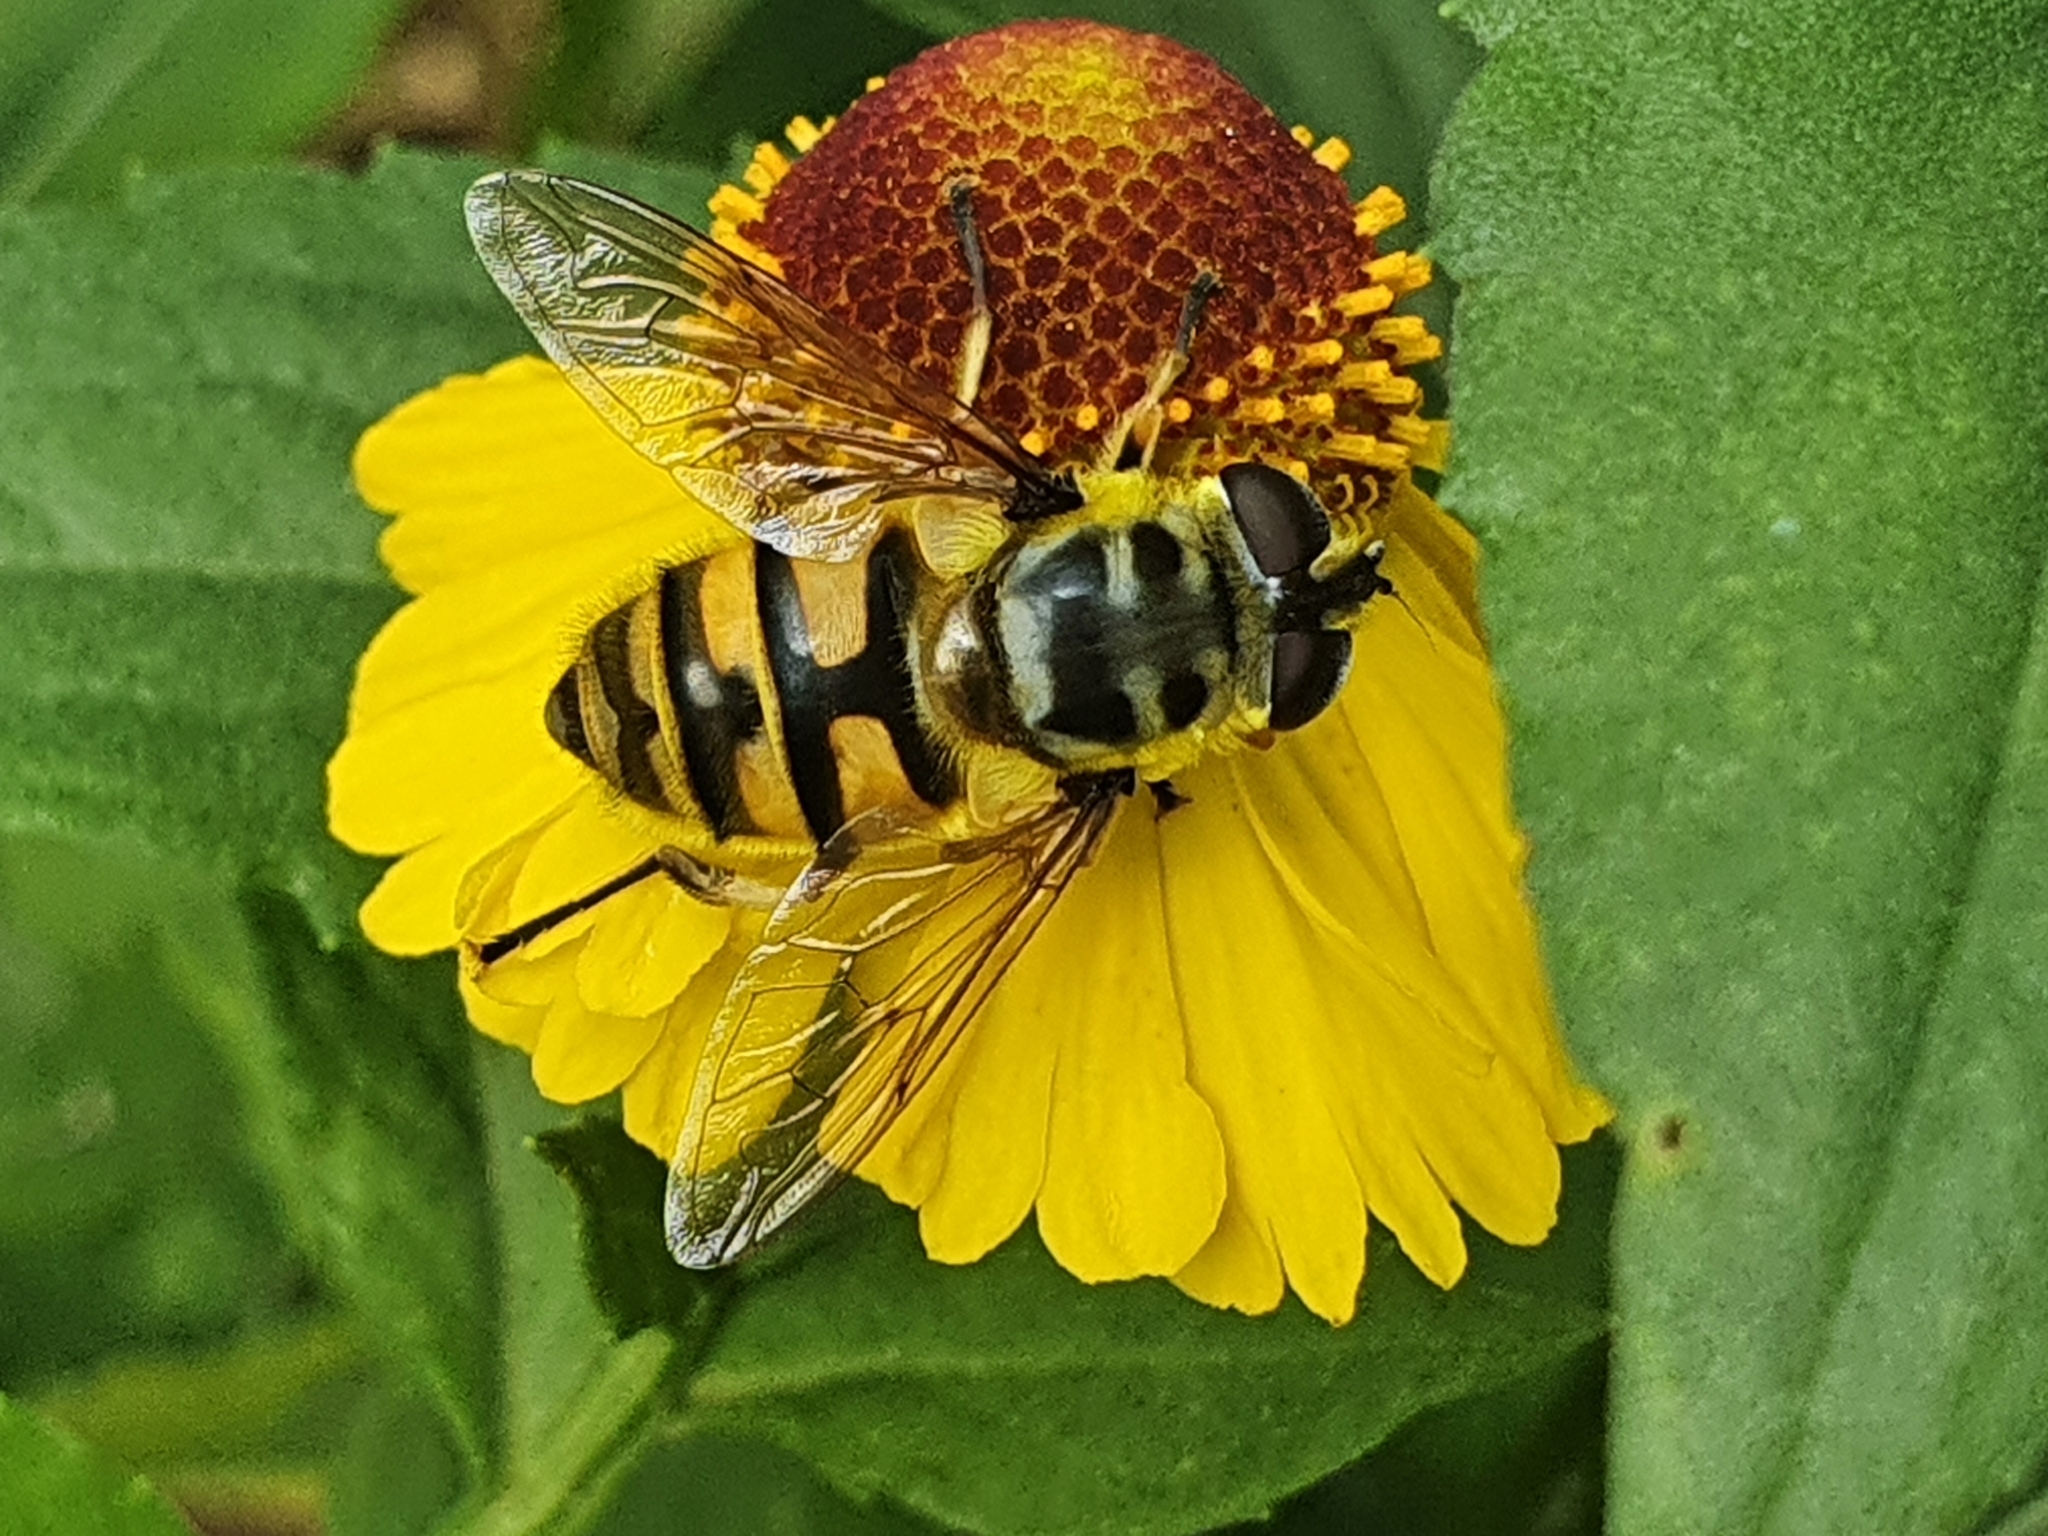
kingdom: Animalia
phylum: Arthropoda
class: Insecta
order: Diptera
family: Syrphidae
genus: Myathropa
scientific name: Myathropa florea
